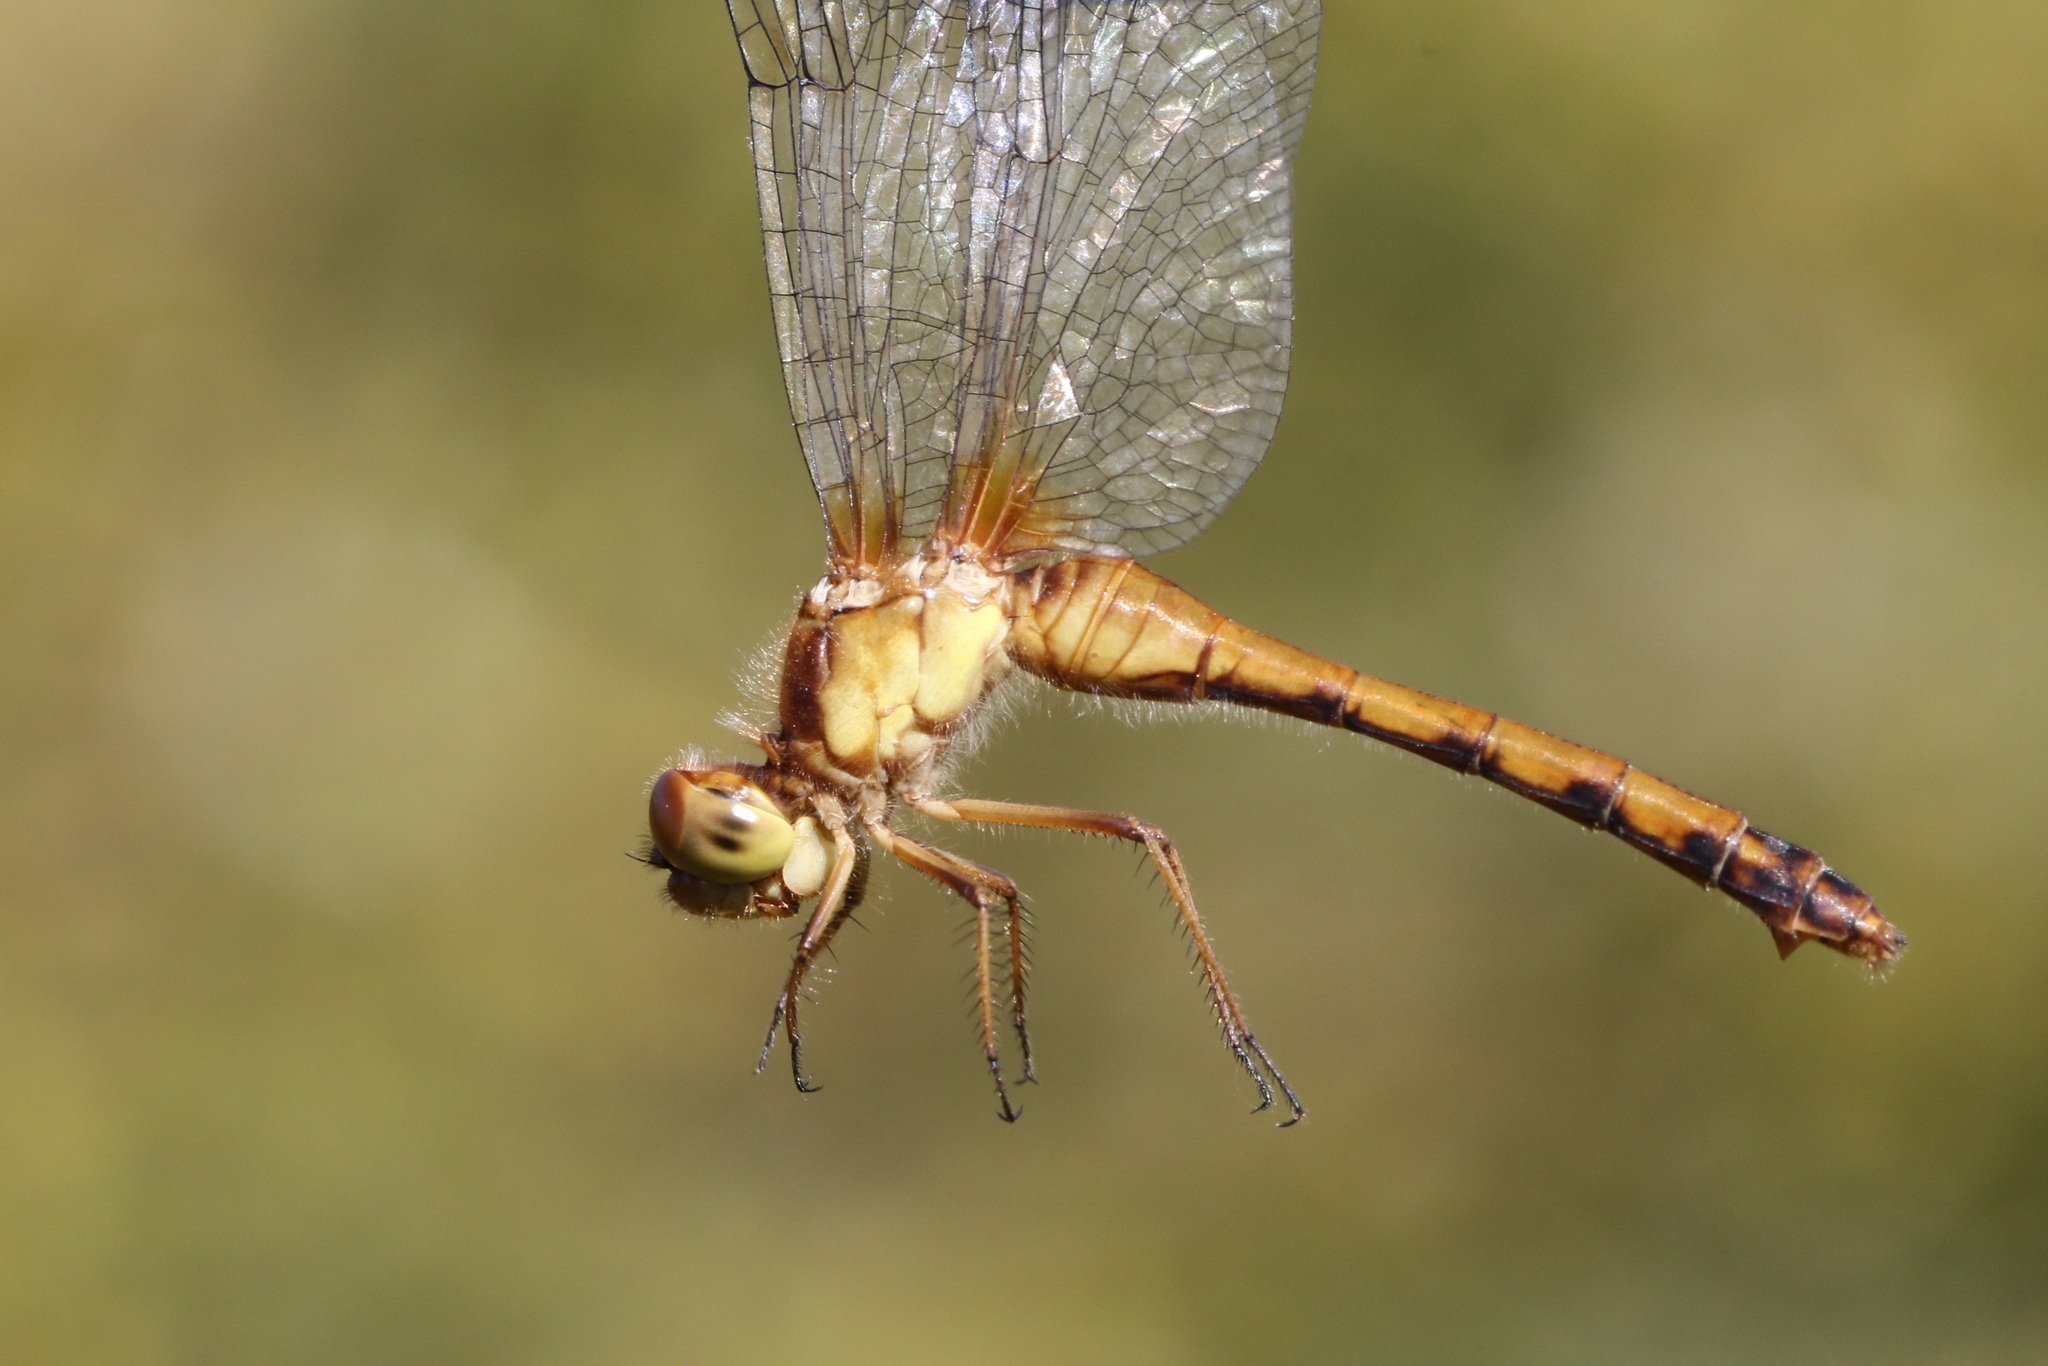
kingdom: Animalia
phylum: Arthropoda
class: Insecta
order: Odonata
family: Libellulidae
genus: Sympetrum
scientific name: Sympetrum vicinum
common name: Autumn meadowhawk
